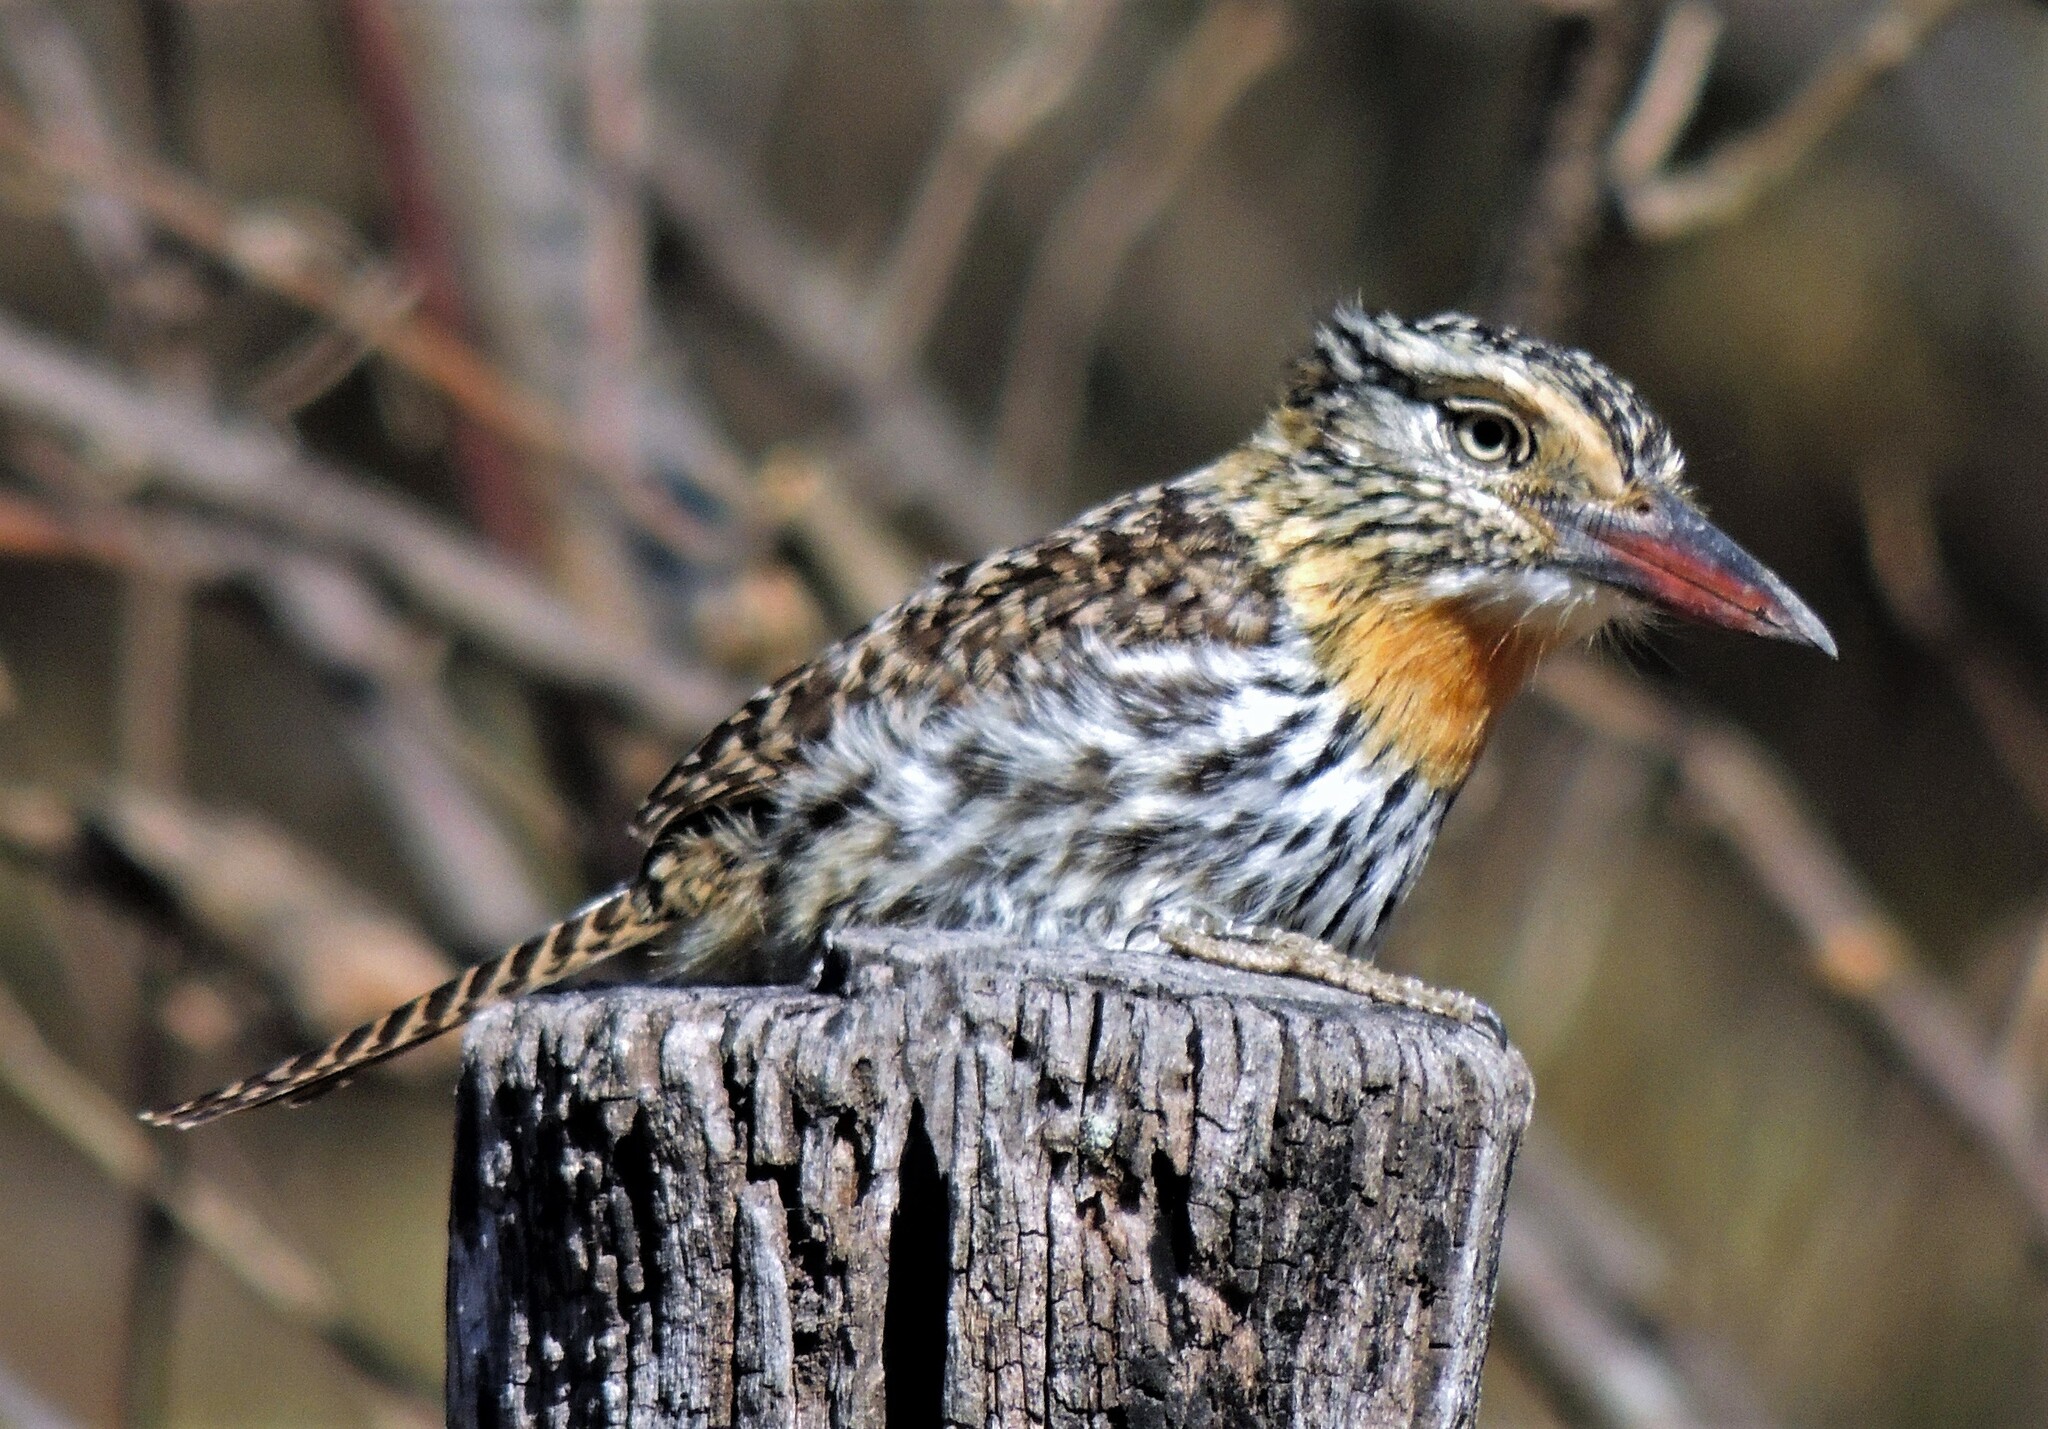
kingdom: Animalia
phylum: Chordata
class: Aves
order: Piciformes
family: Bucconidae
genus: Nystalus
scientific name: Nystalus maculatus
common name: Caatinga puffbird
